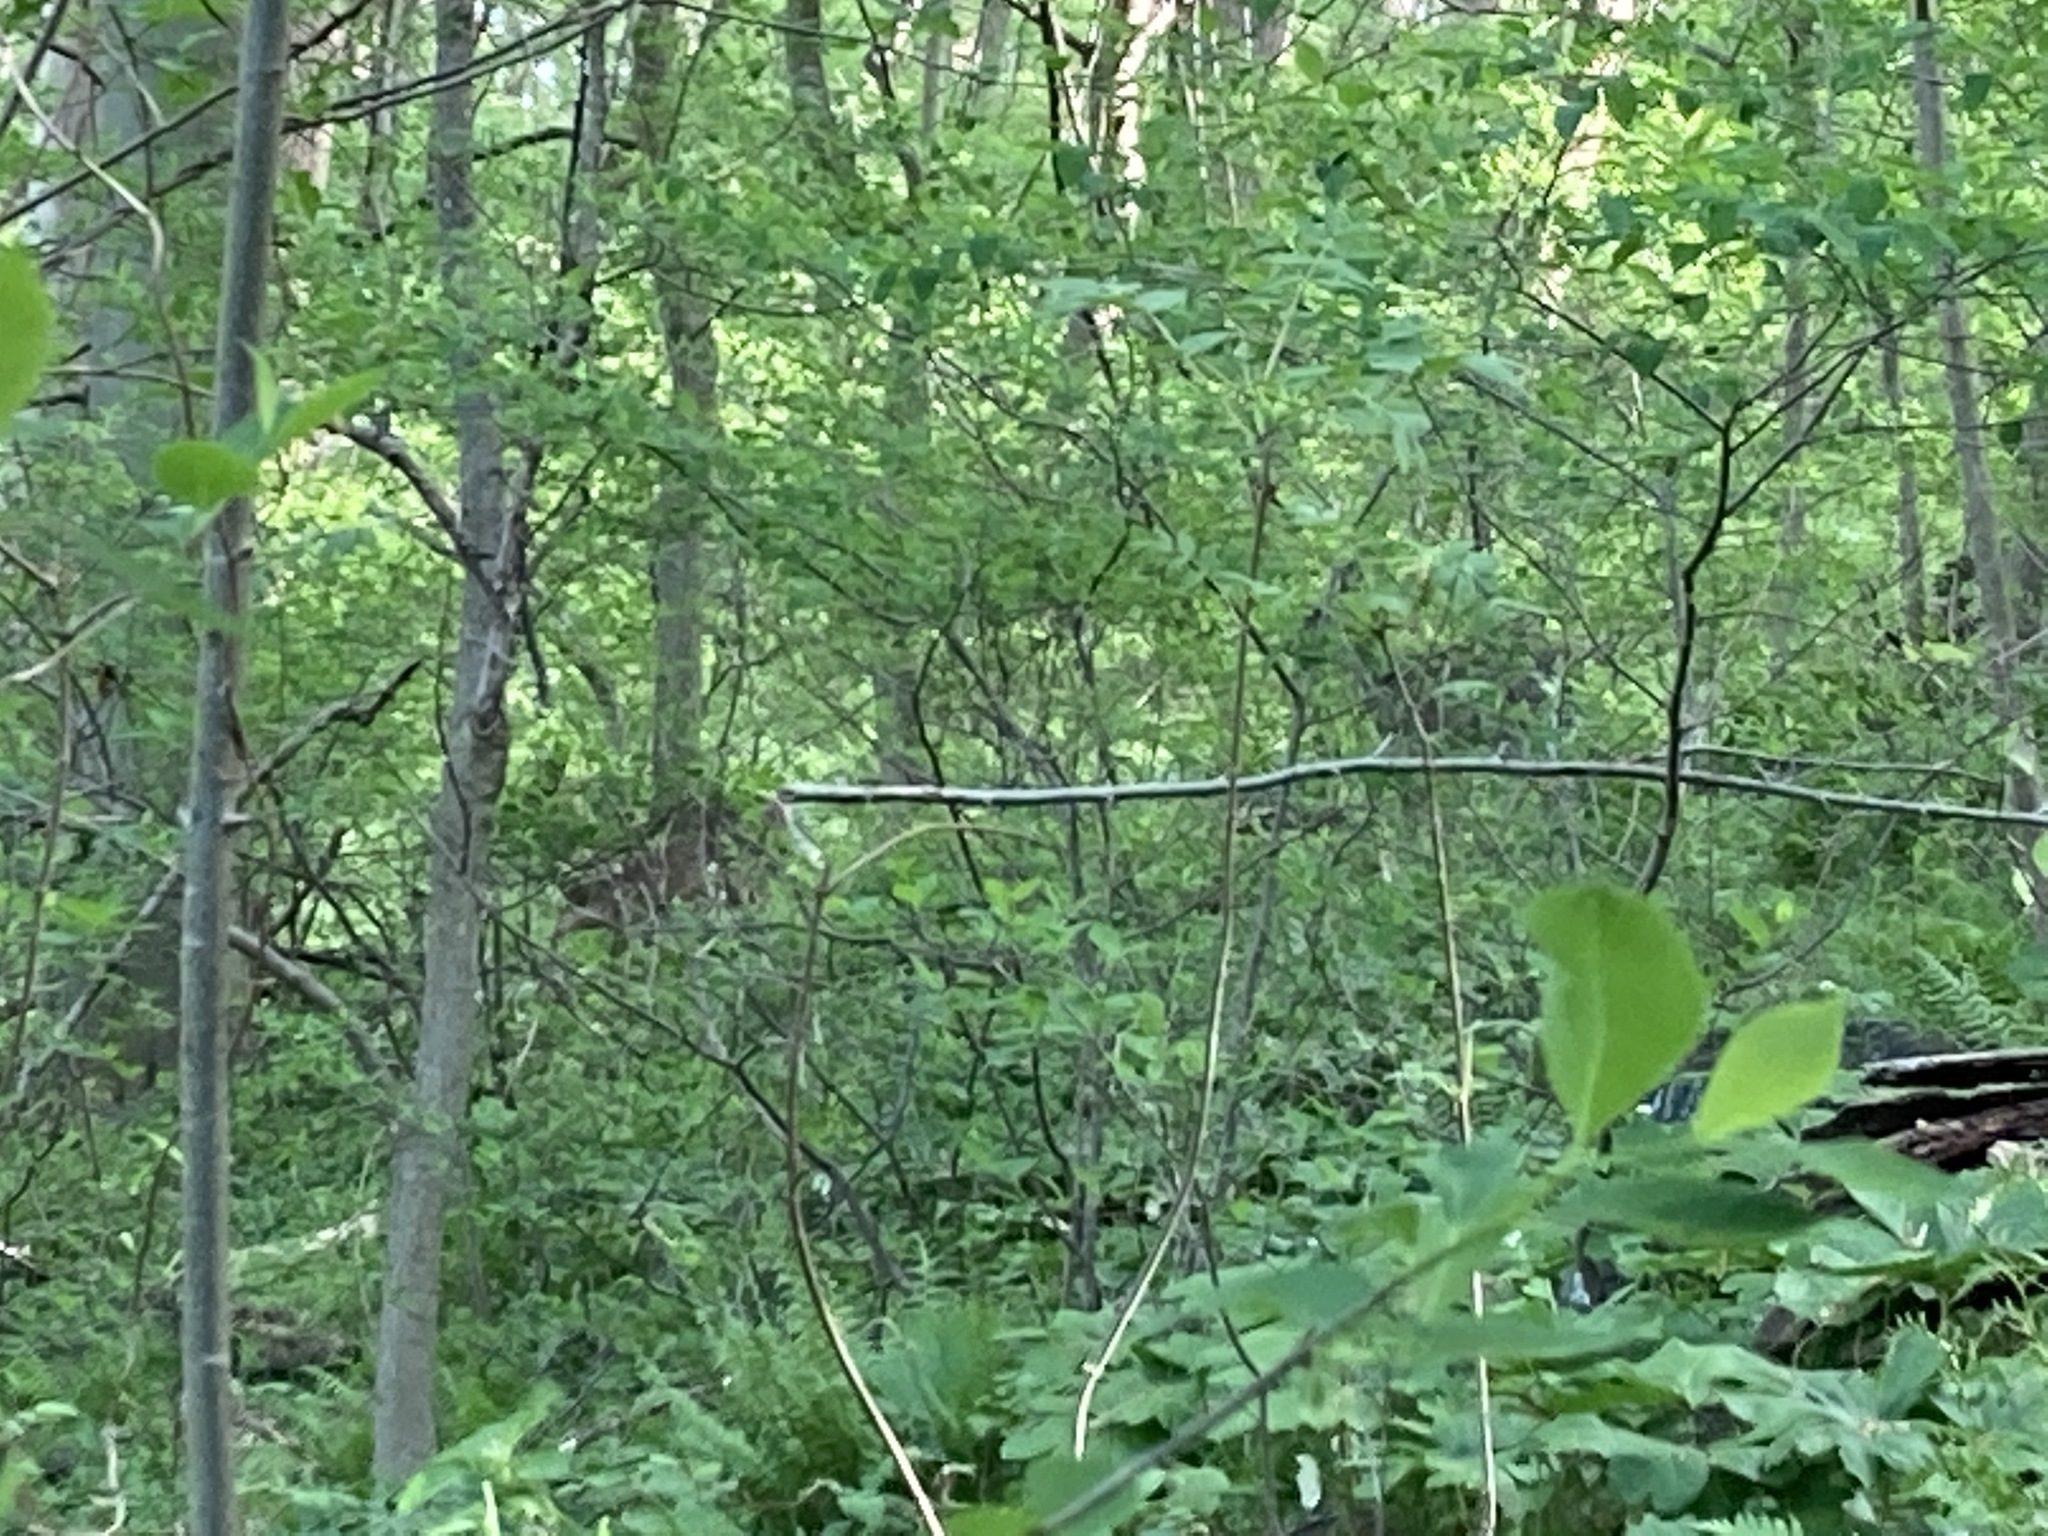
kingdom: Animalia
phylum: Chordata
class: Mammalia
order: Artiodactyla
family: Cervidae
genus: Odocoileus
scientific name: Odocoileus virginianus
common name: White-tailed deer
